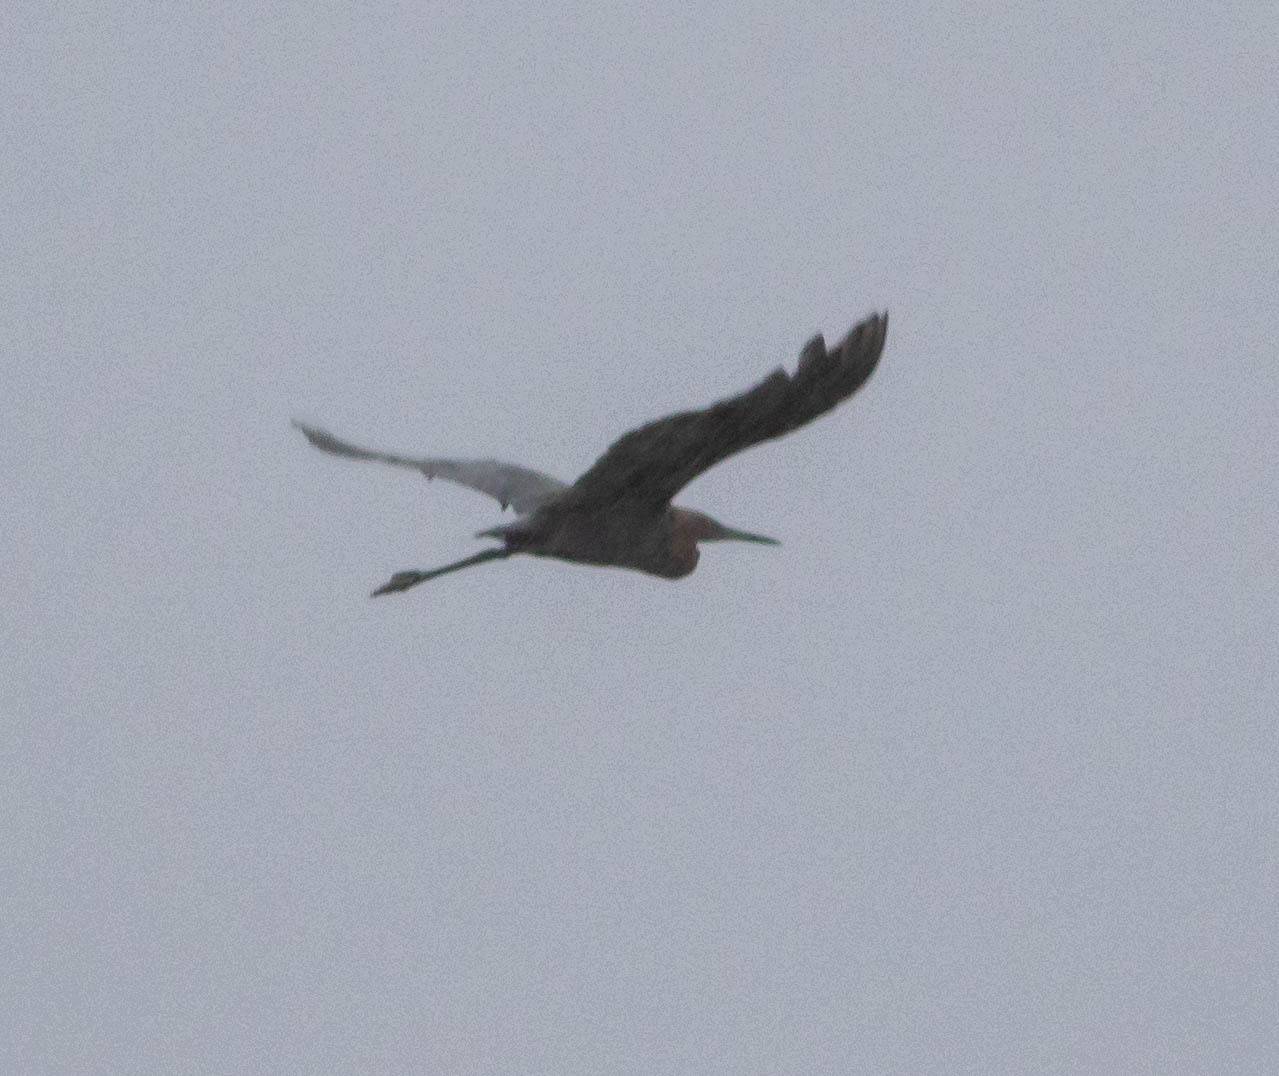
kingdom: Animalia
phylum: Chordata
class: Aves
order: Pelecaniformes
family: Ardeidae
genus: Egretta
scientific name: Egretta rufescens
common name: Reddish egret
